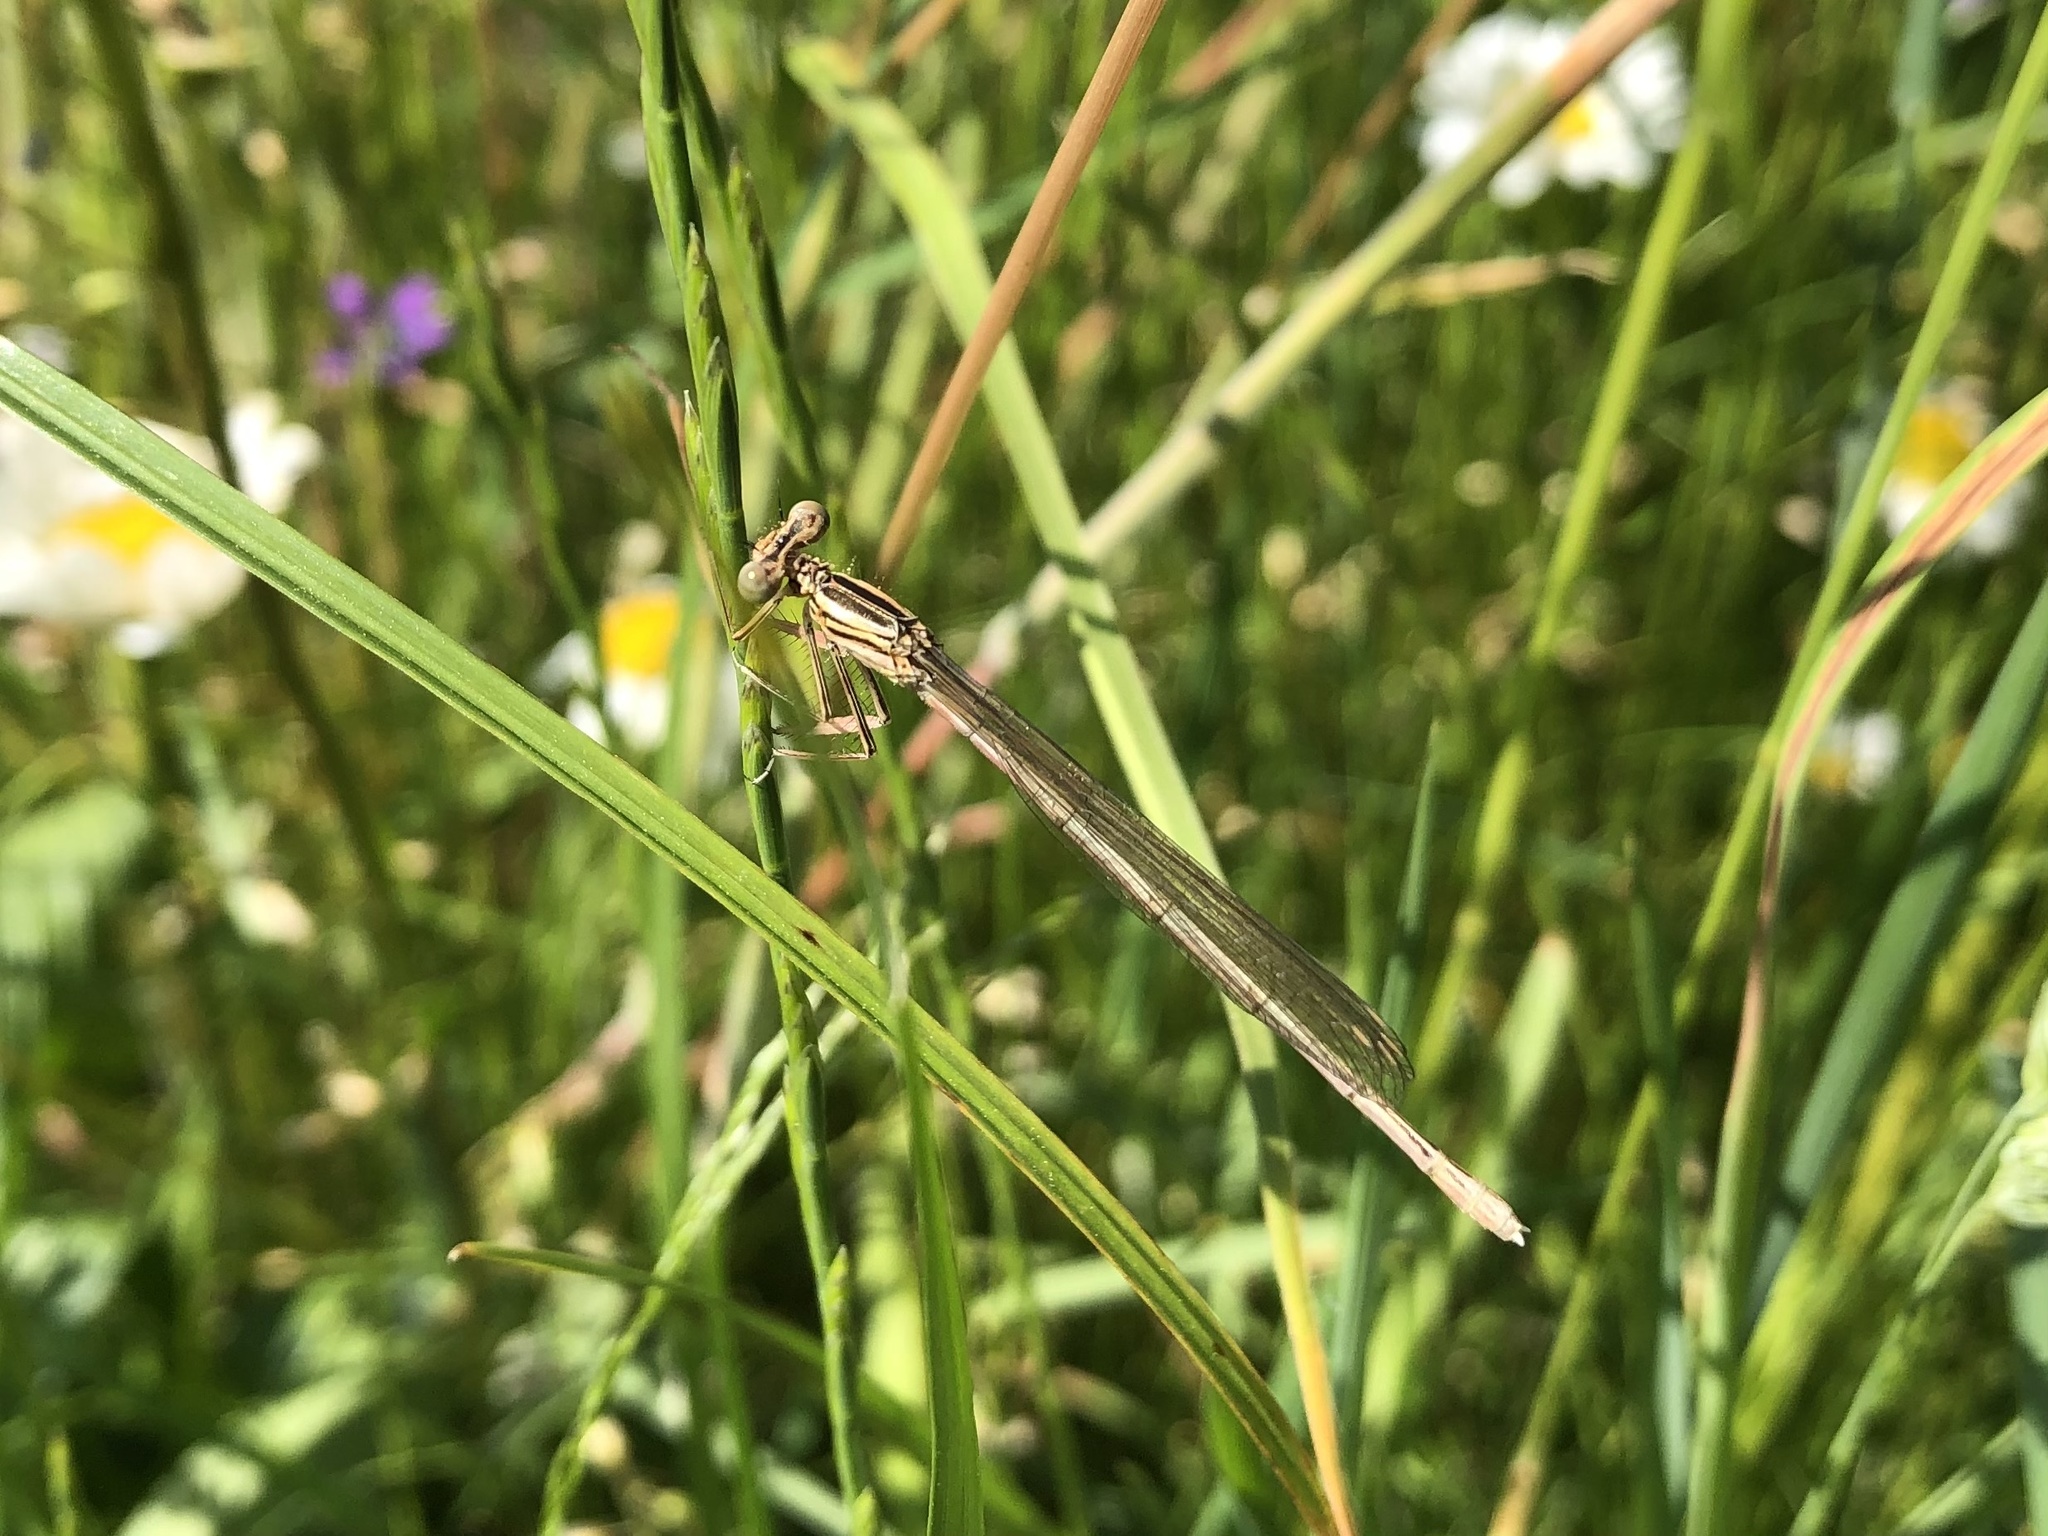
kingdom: Animalia
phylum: Arthropoda
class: Insecta
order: Odonata
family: Platycnemididae
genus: Platycnemis
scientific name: Platycnemis pennipes
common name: White-legged damselfly
